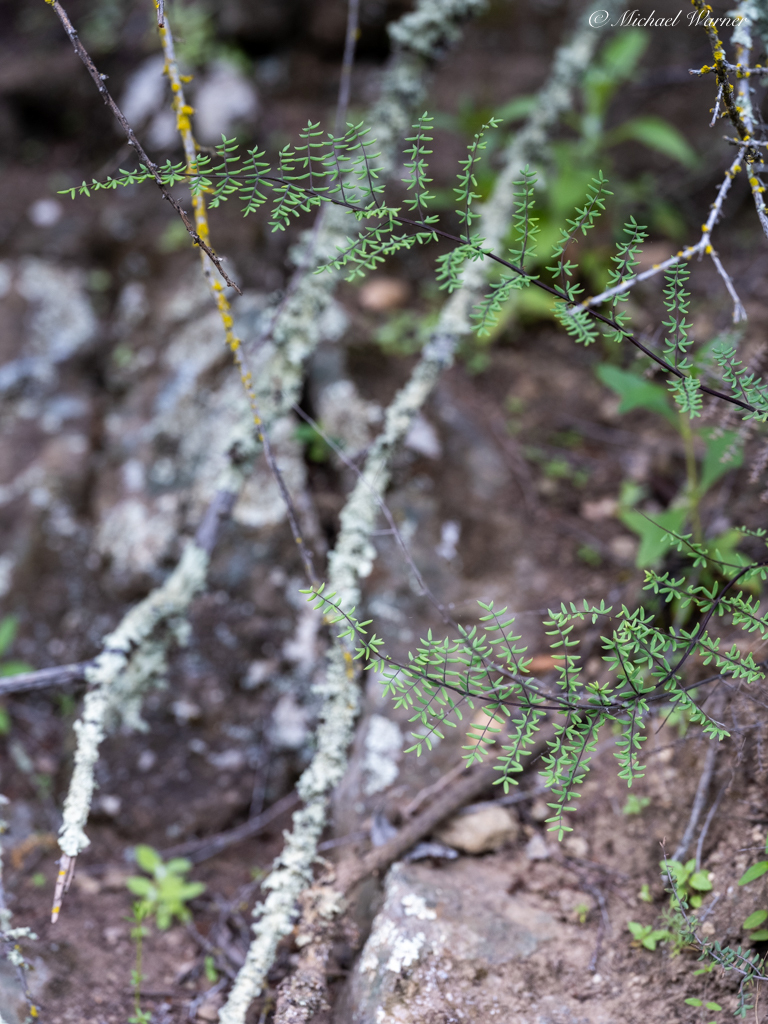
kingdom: Plantae
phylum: Tracheophyta
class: Polypodiopsida
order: Polypodiales
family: Pteridaceae
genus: Pellaea
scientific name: Pellaea mucronata
